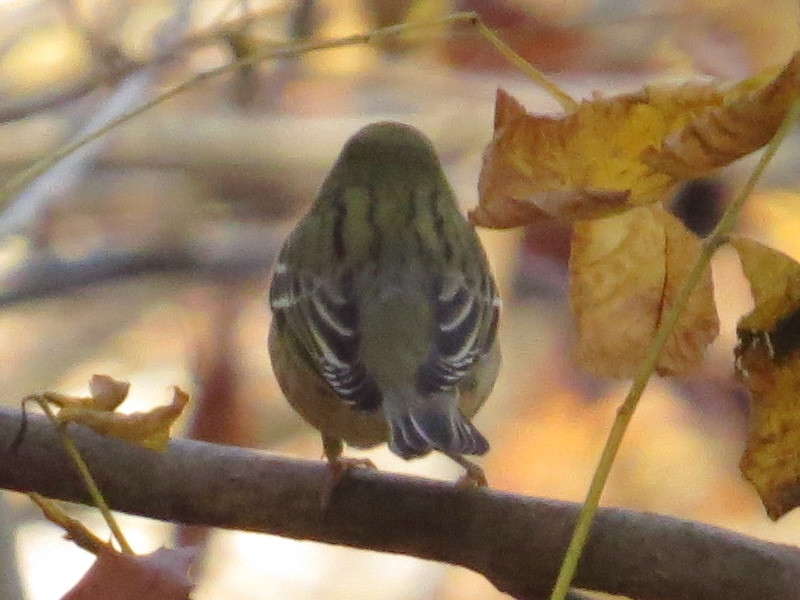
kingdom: Animalia
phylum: Chordata
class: Aves
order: Passeriformes
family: Parulidae
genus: Setophaga
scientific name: Setophaga striata
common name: Blackpoll warbler
